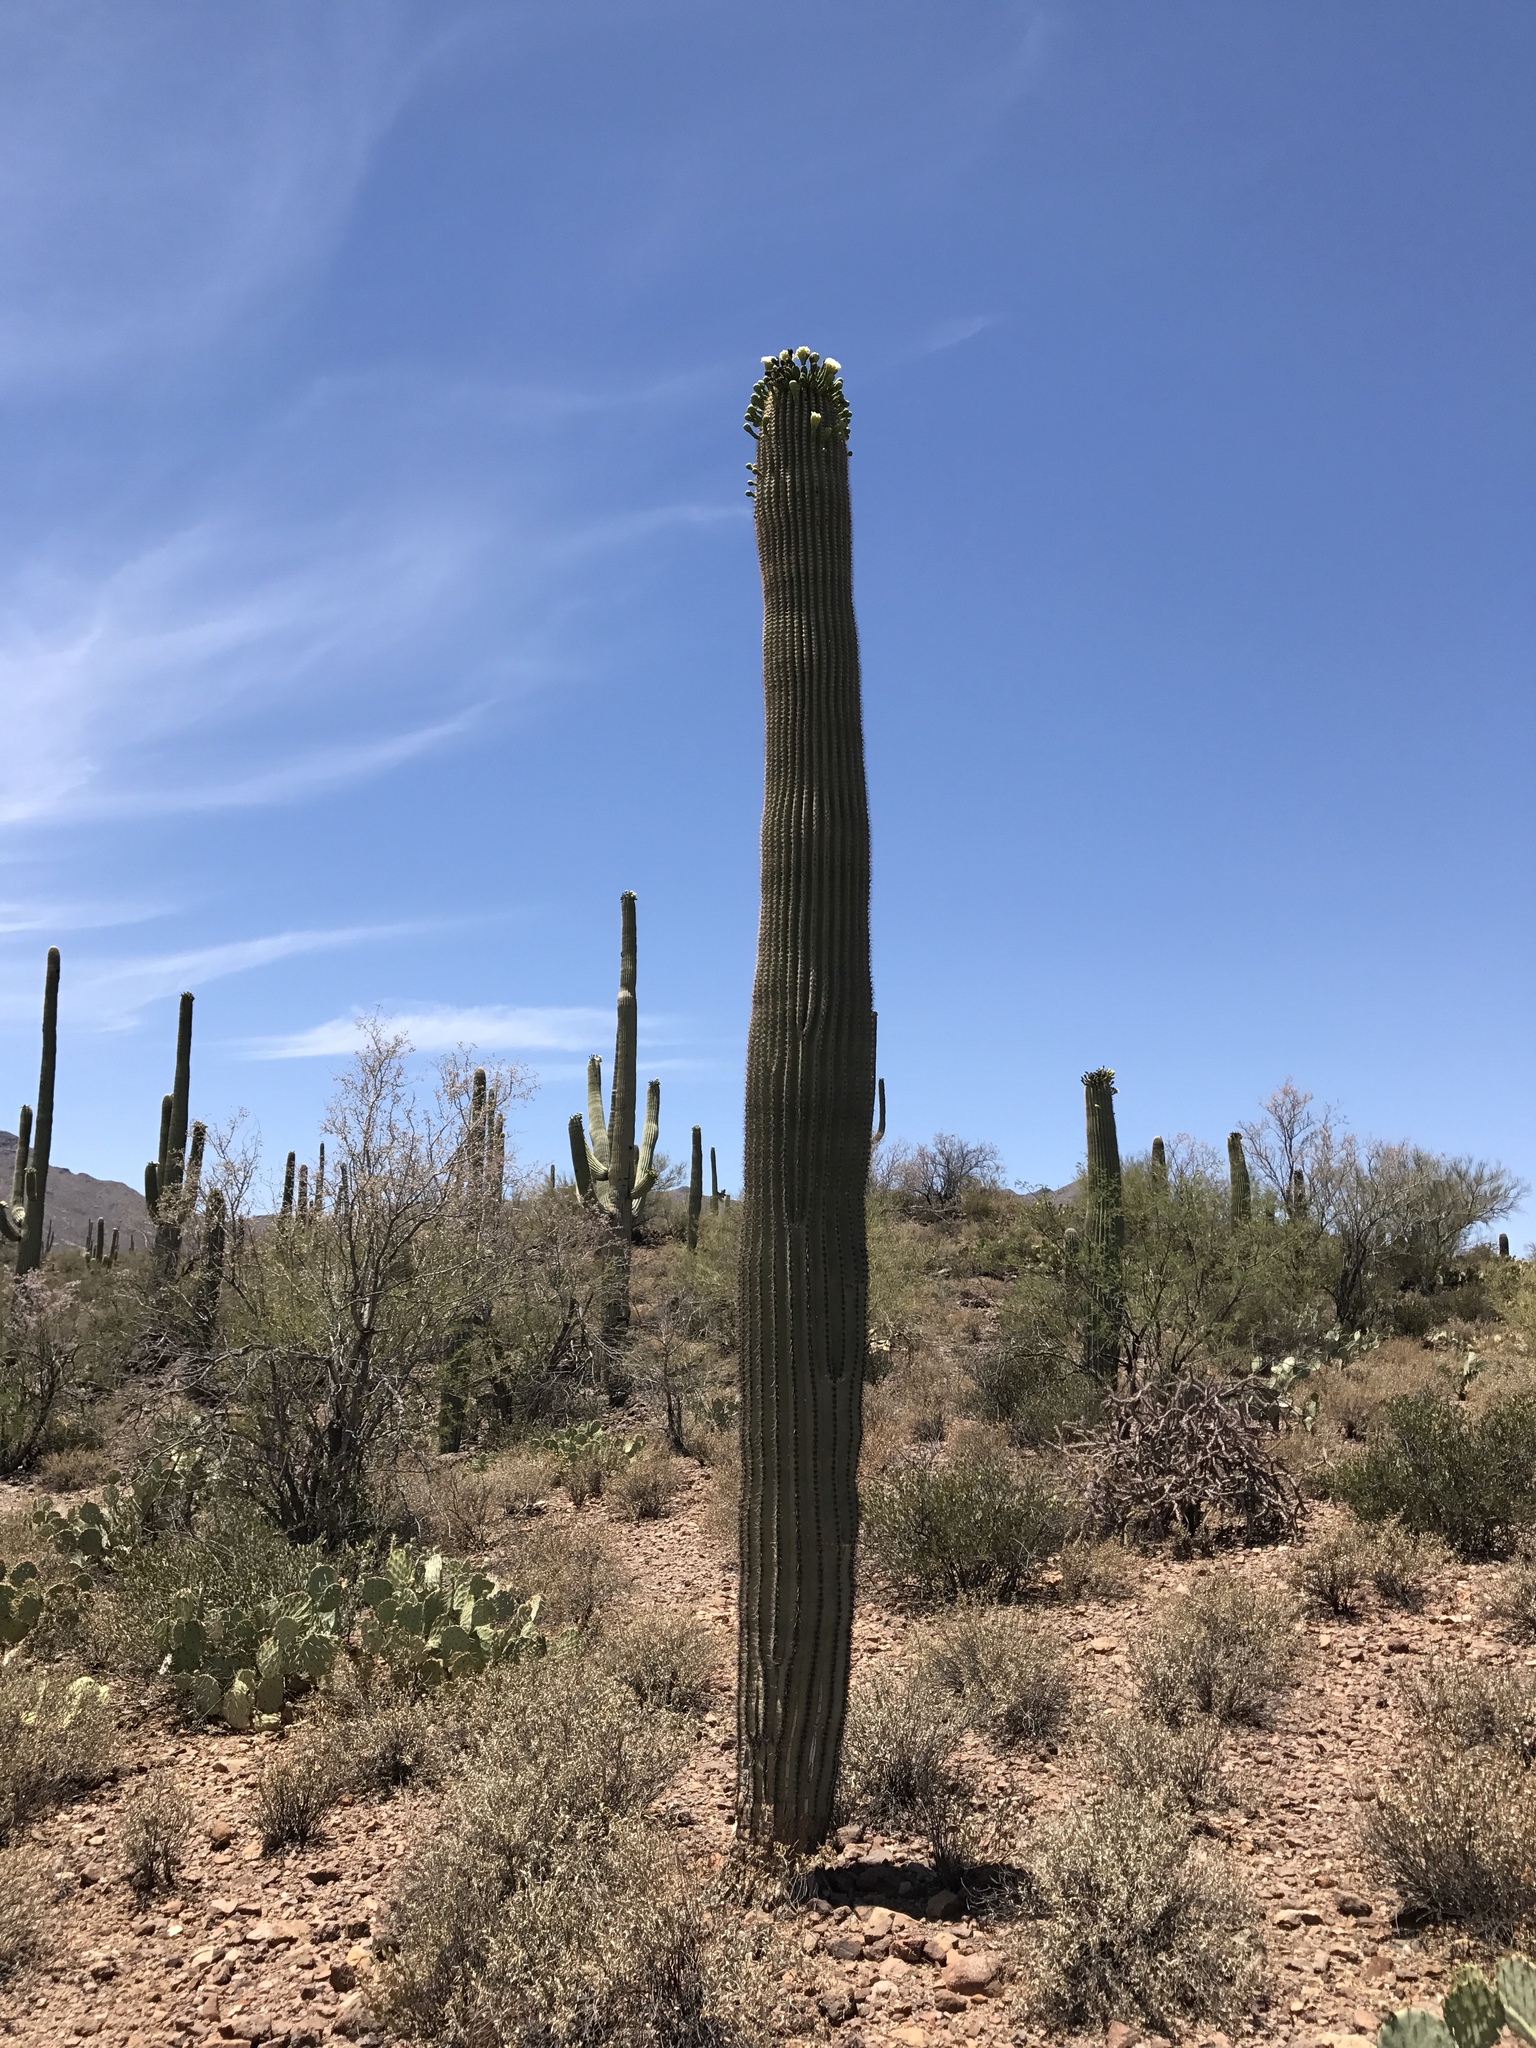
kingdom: Plantae
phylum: Tracheophyta
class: Magnoliopsida
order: Caryophyllales
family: Cactaceae
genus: Carnegiea
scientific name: Carnegiea gigantea
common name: Saguaro
